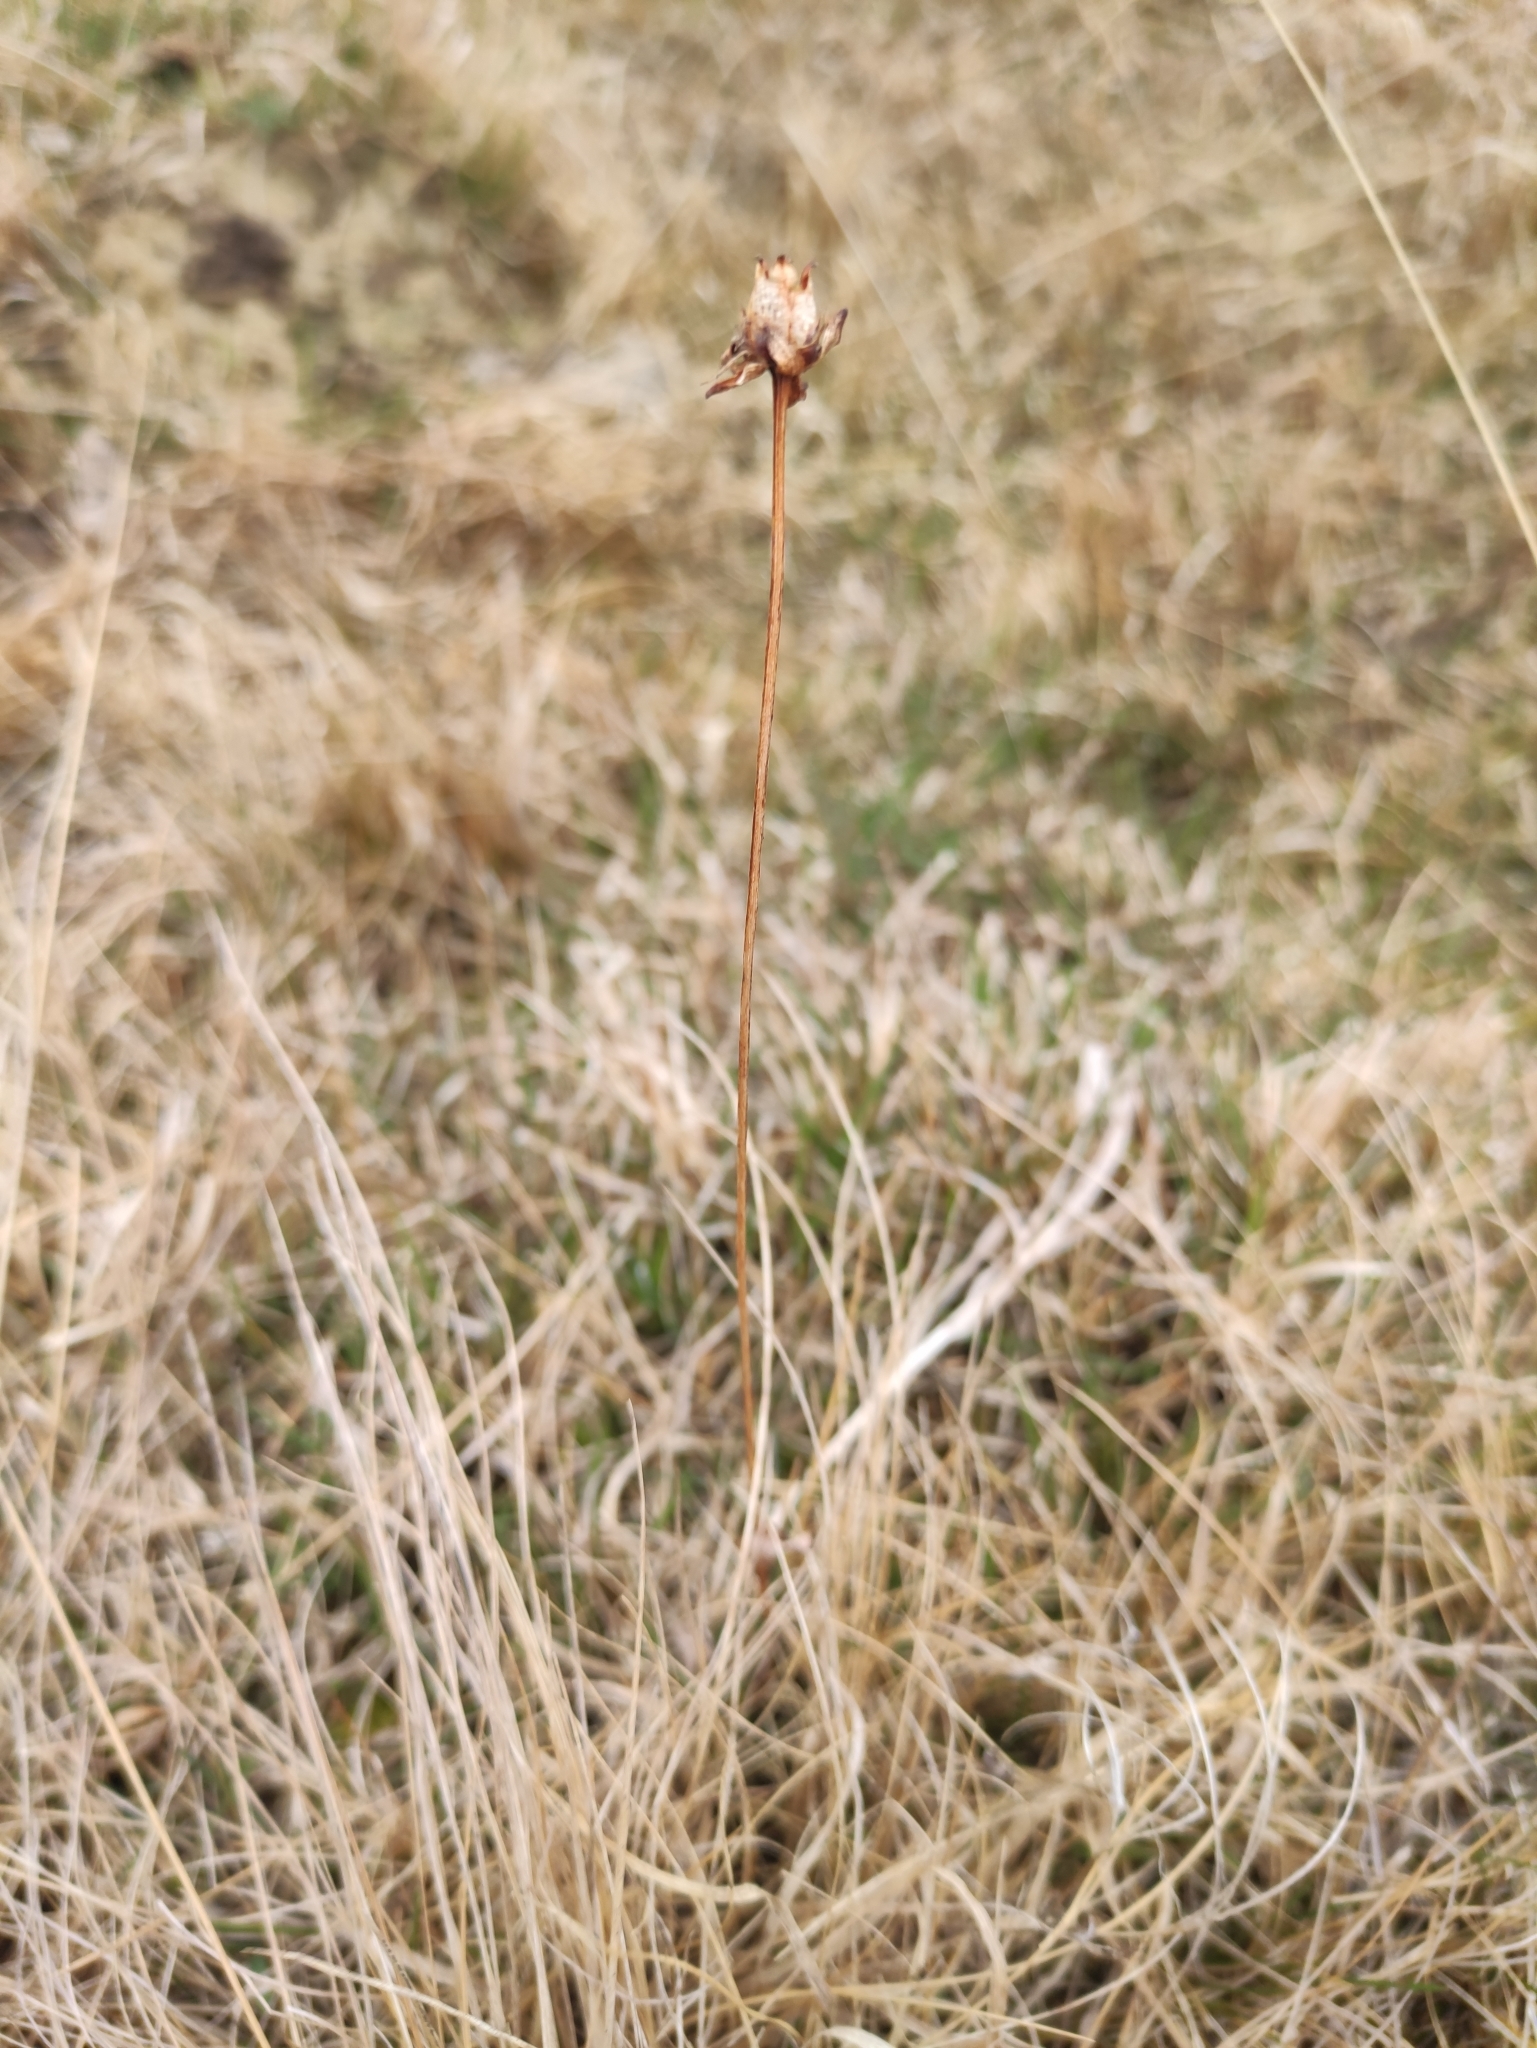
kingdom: Plantae
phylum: Tracheophyta
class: Magnoliopsida
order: Celastrales
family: Parnassiaceae
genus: Parnassia
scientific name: Parnassia palustris
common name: Grass-of-parnassus
